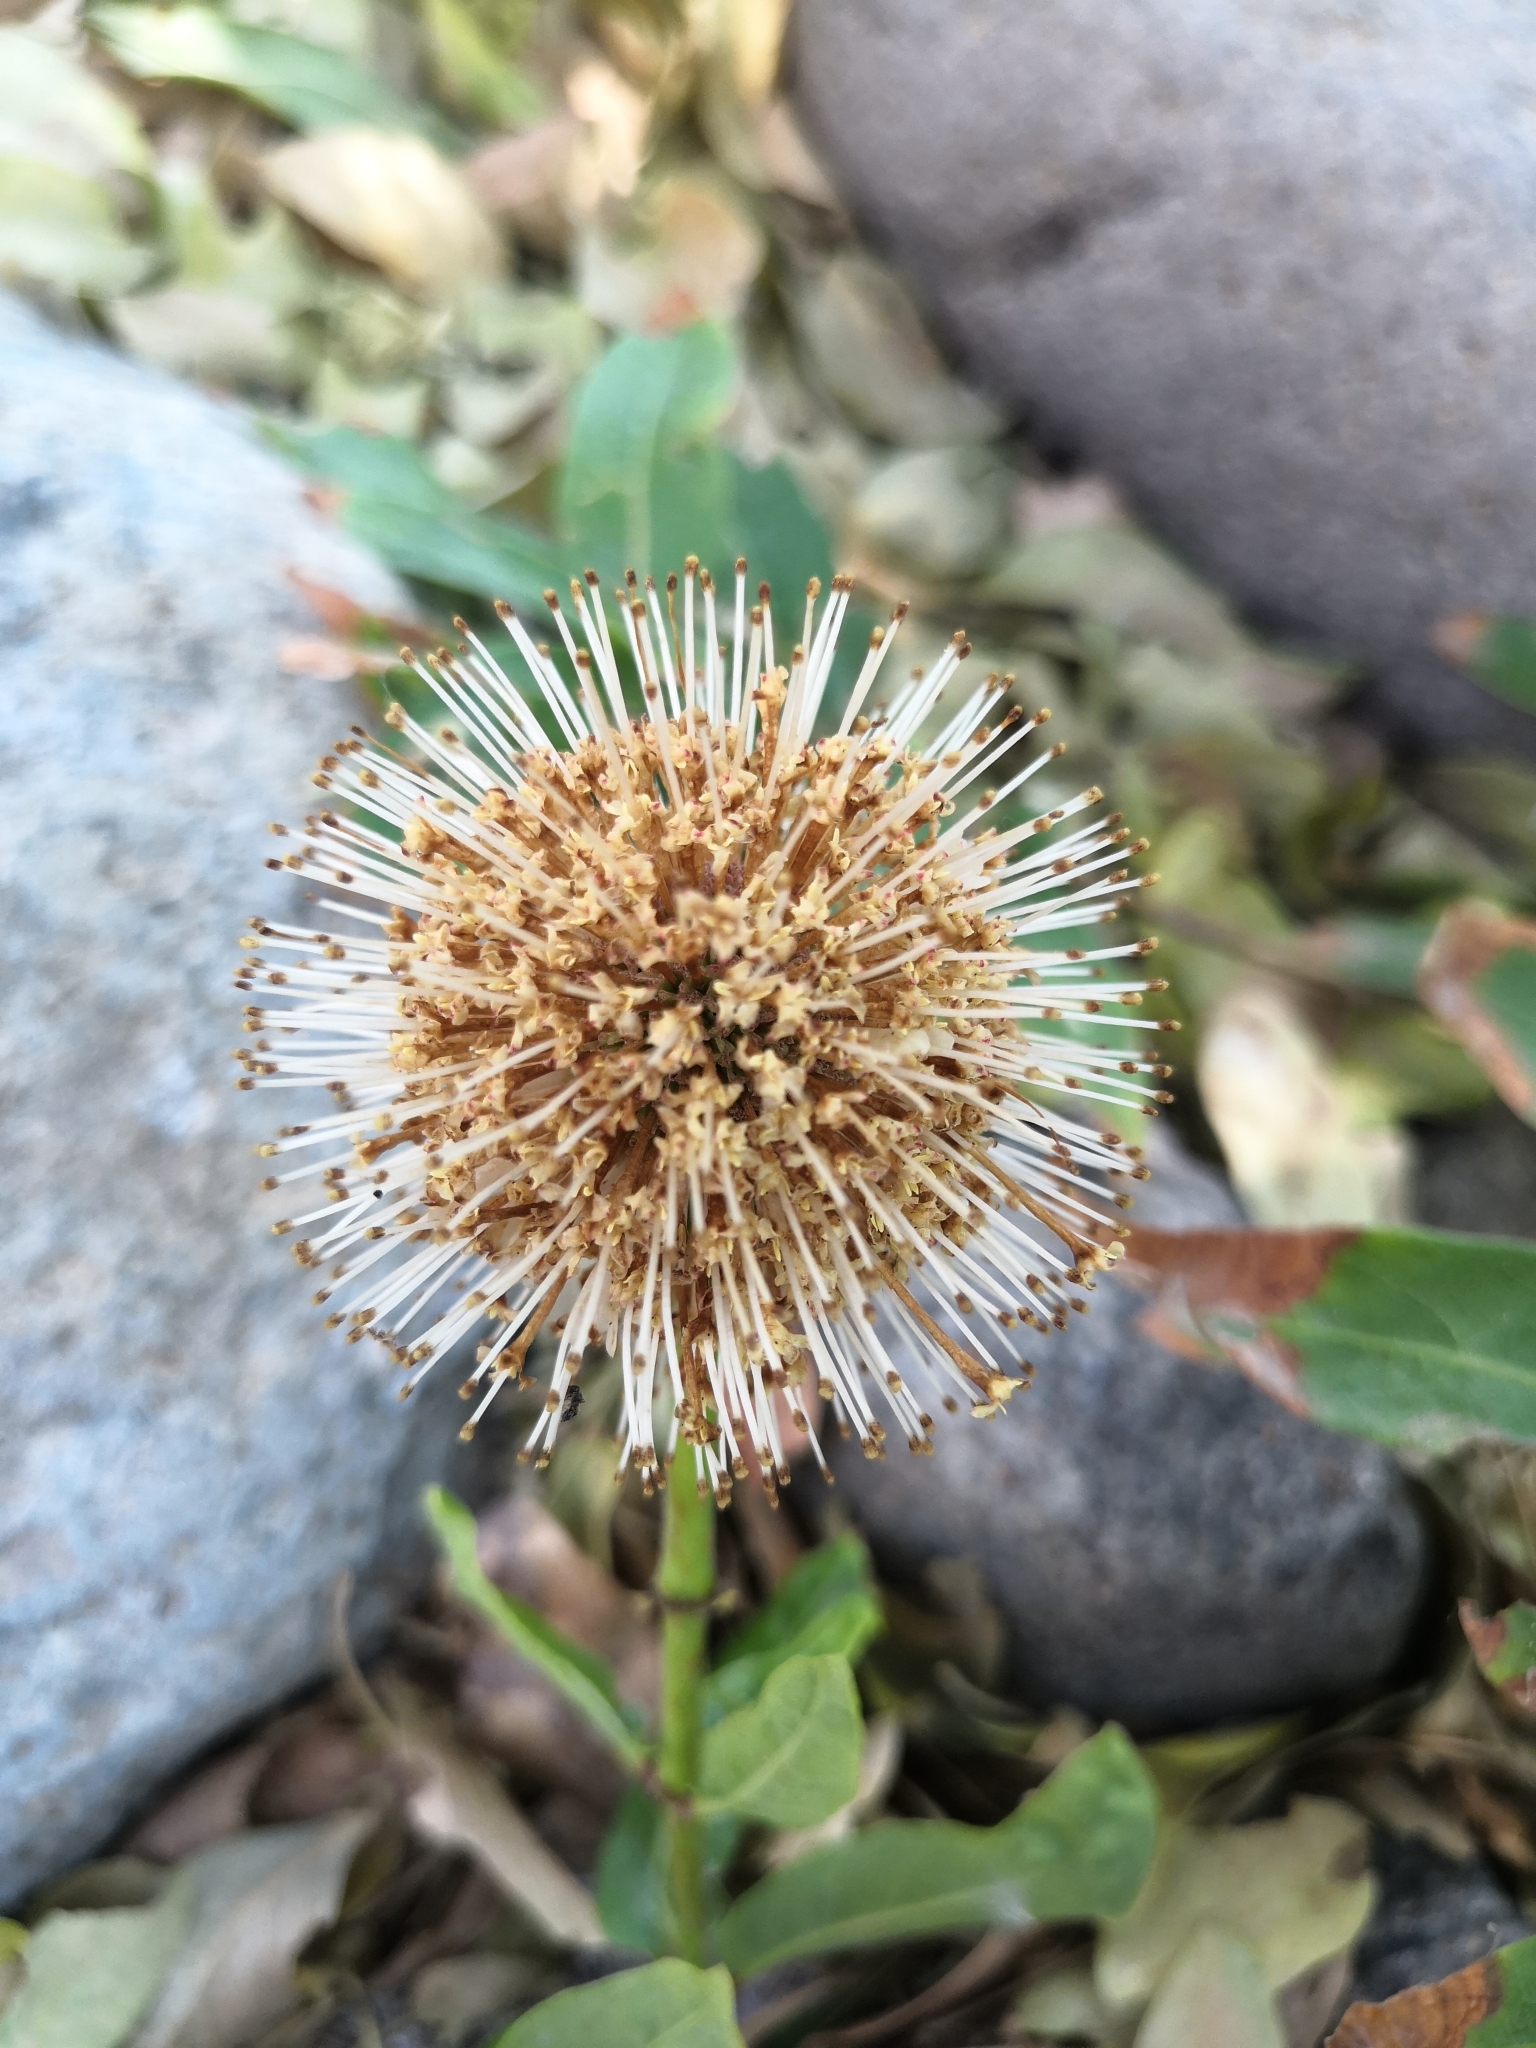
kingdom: Plantae
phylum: Tracheophyta
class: Magnoliopsida
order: Gentianales
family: Rubiaceae
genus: Cephalanthus
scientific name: Cephalanthus occidentalis
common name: Button-willow
